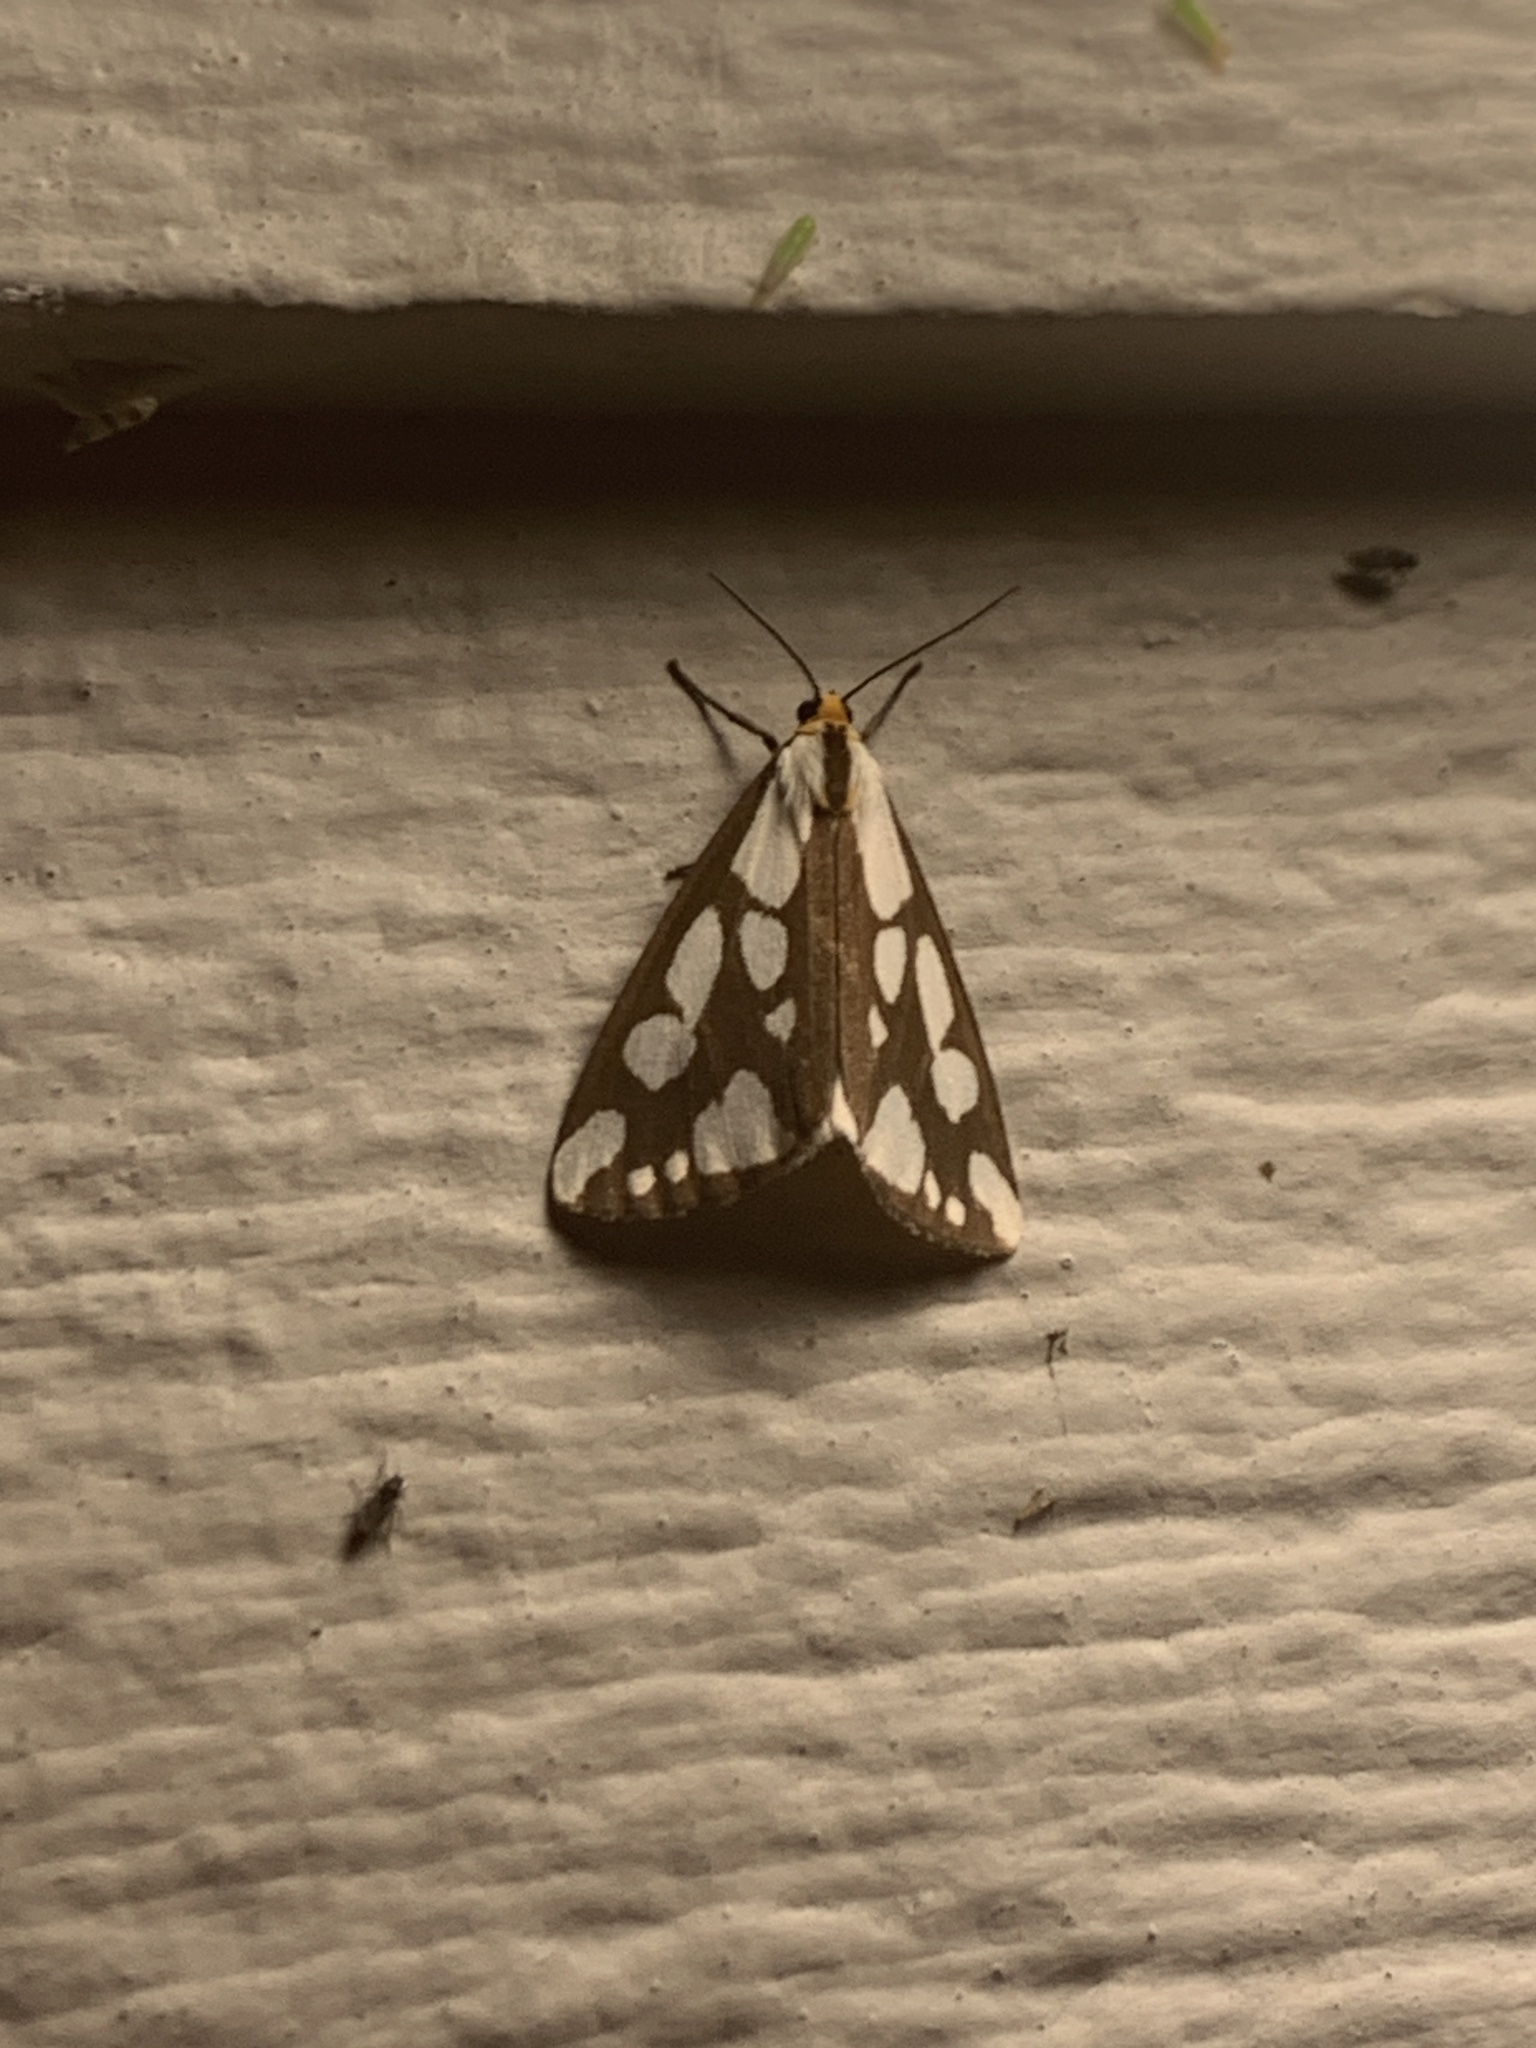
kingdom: Animalia
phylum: Arthropoda
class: Insecta
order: Lepidoptera
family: Erebidae
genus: Haploa
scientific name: Haploa confusa
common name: Confused haploa moth
